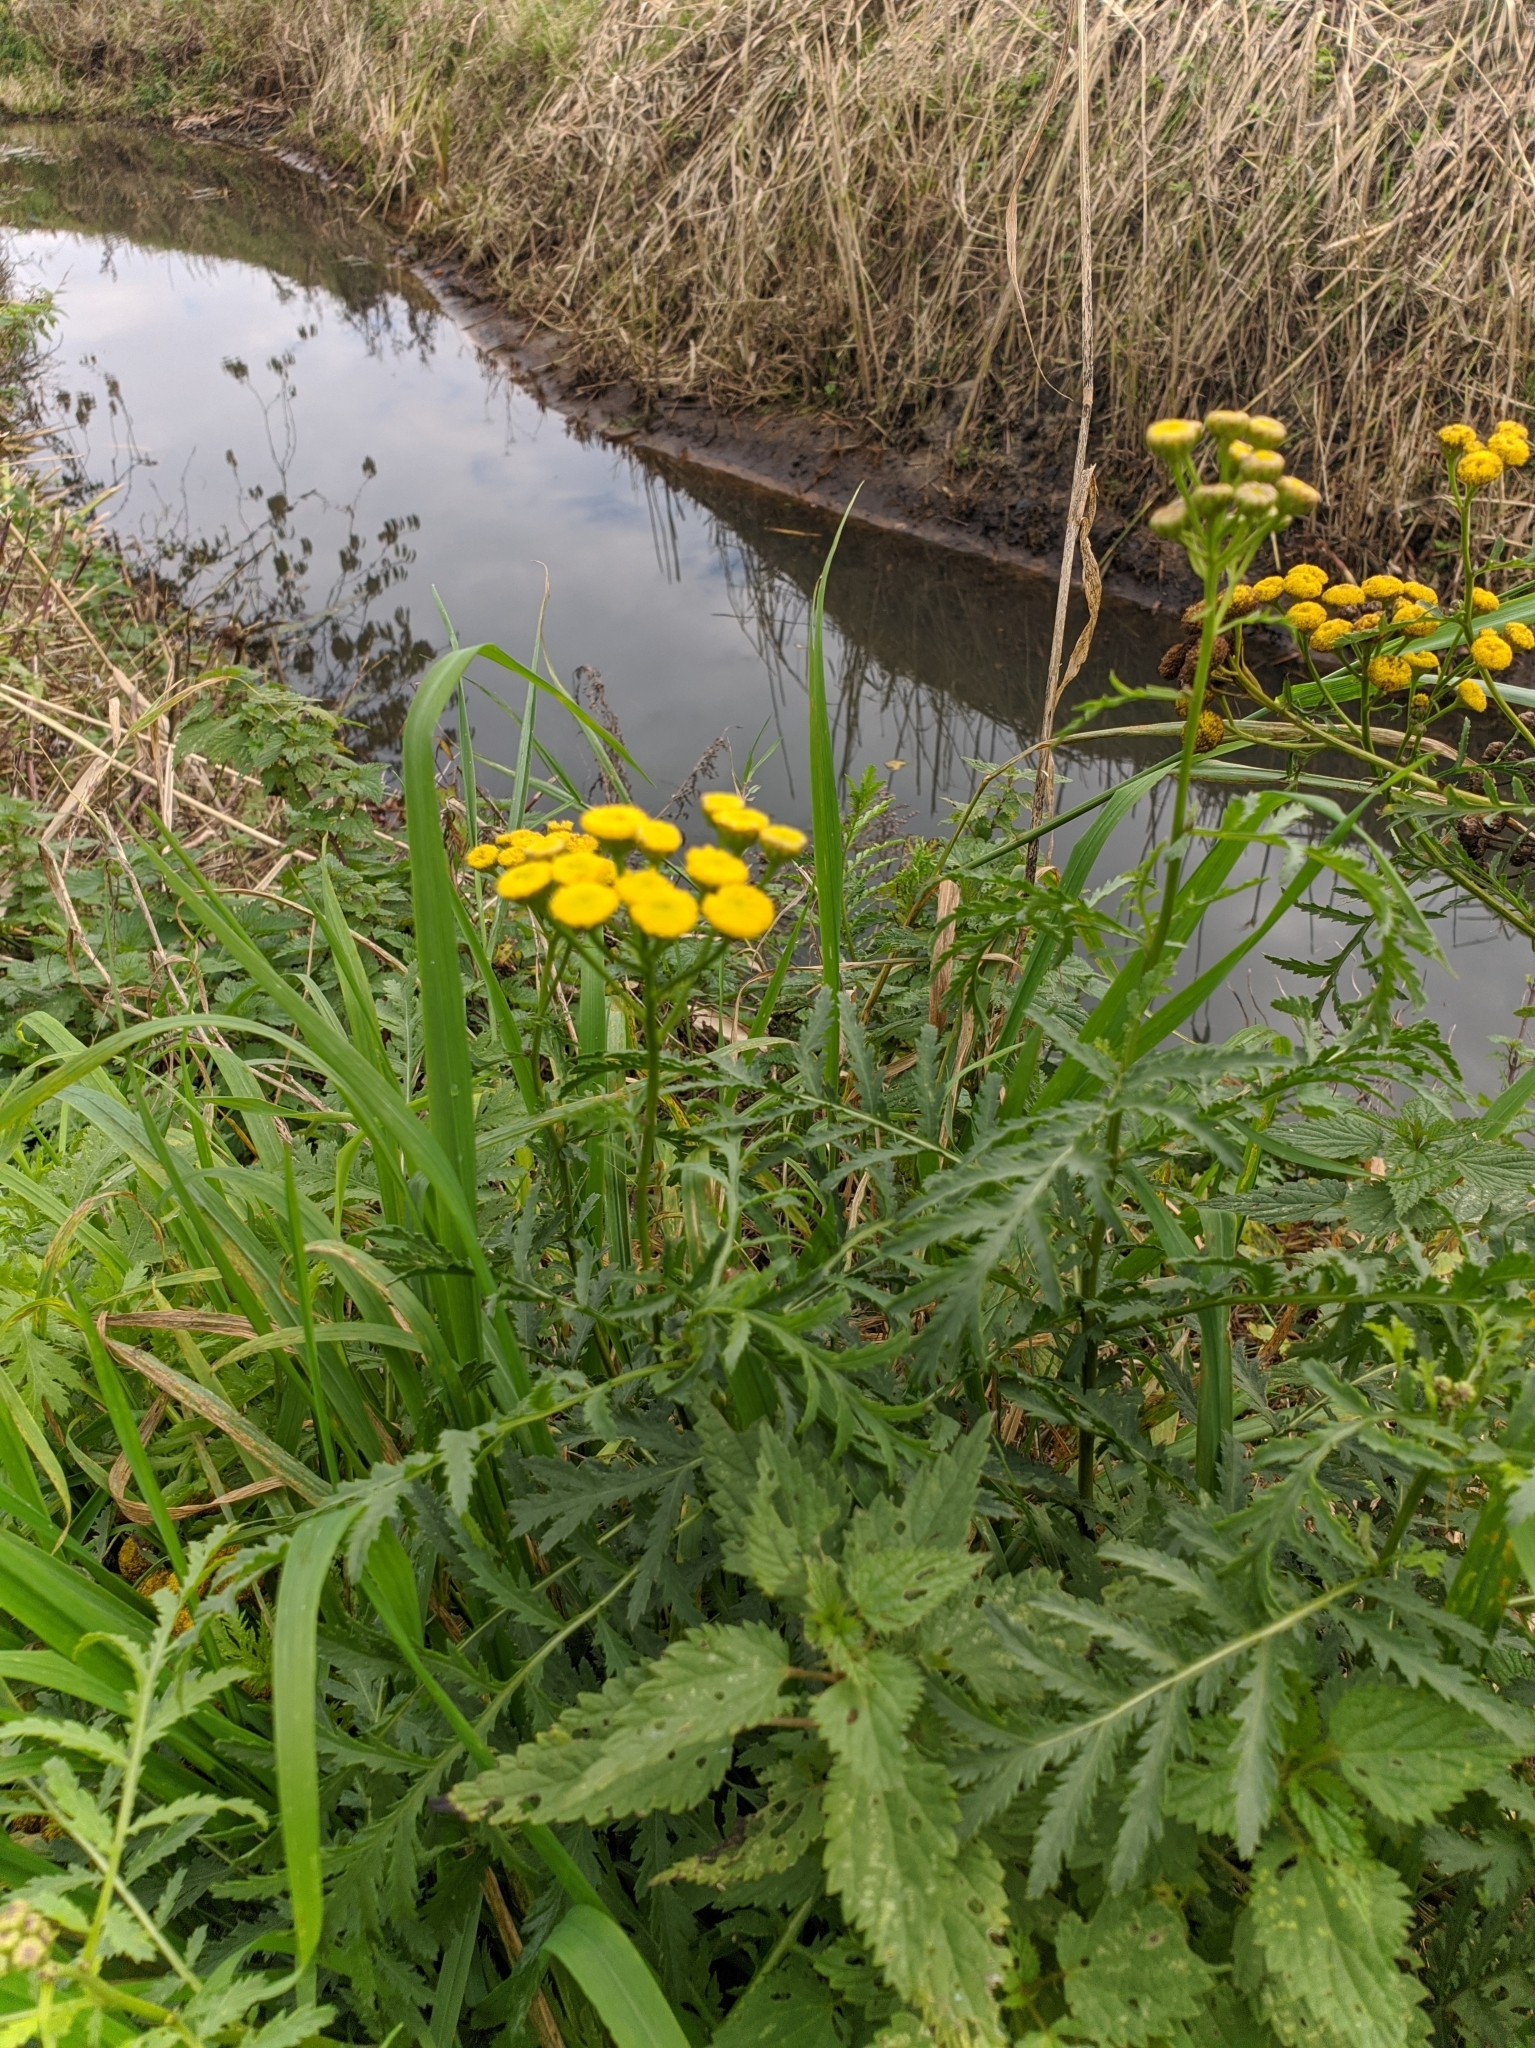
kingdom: Plantae
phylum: Tracheophyta
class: Magnoliopsida
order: Asterales
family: Asteraceae
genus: Tanacetum
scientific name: Tanacetum vulgare
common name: Common tansy
